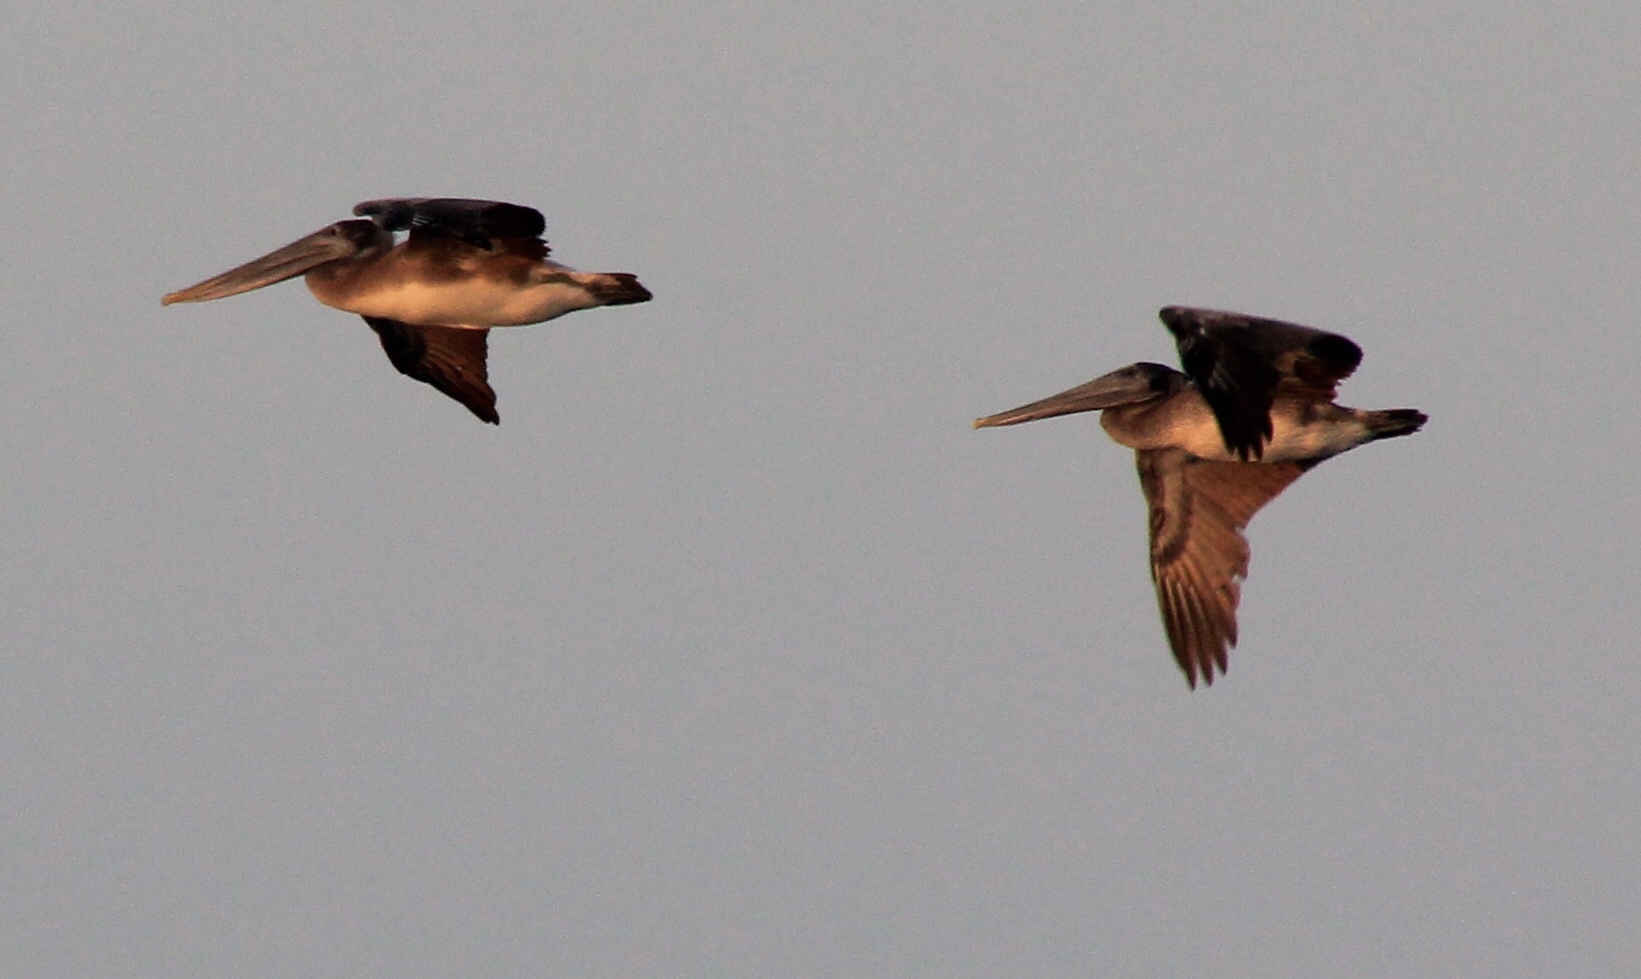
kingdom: Animalia
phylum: Chordata
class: Aves
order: Pelecaniformes
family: Pelecanidae
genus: Pelecanus
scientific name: Pelecanus occidentalis
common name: Brown pelican
